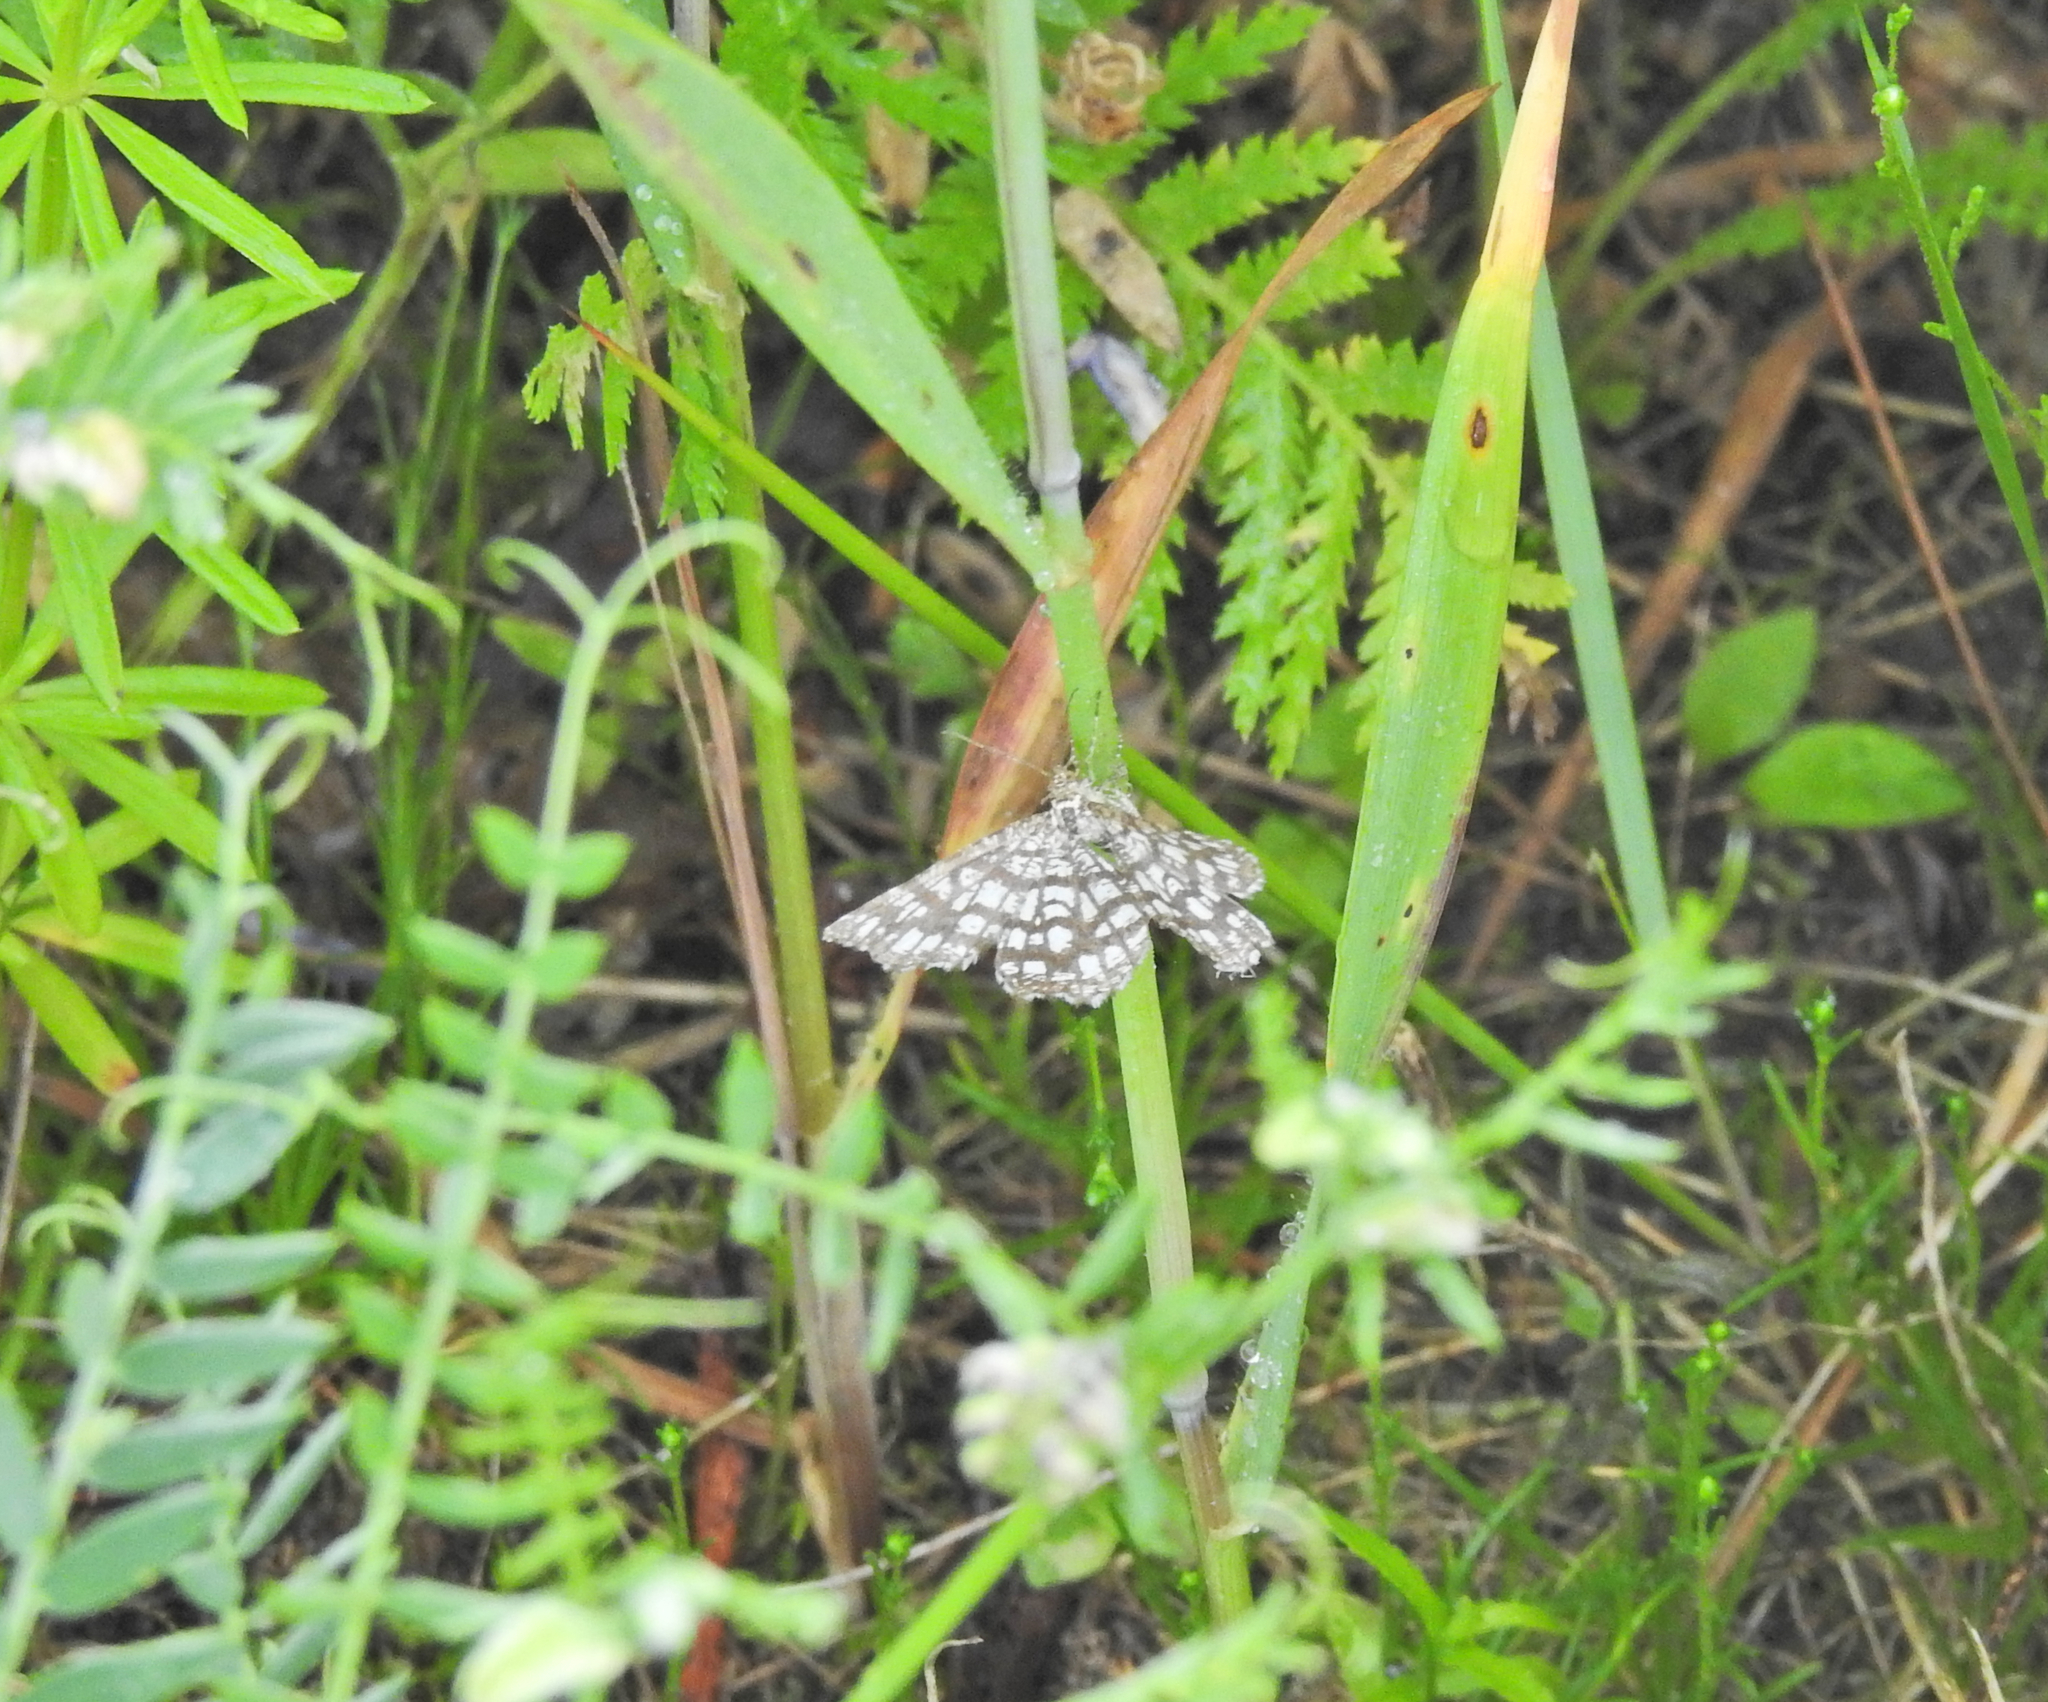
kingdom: Animalia
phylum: Arthropoda
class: Insecta
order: Lepidoptera
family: Geometridae
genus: Chiasmia
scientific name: Chiasmia clathrata
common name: Latticed heath
